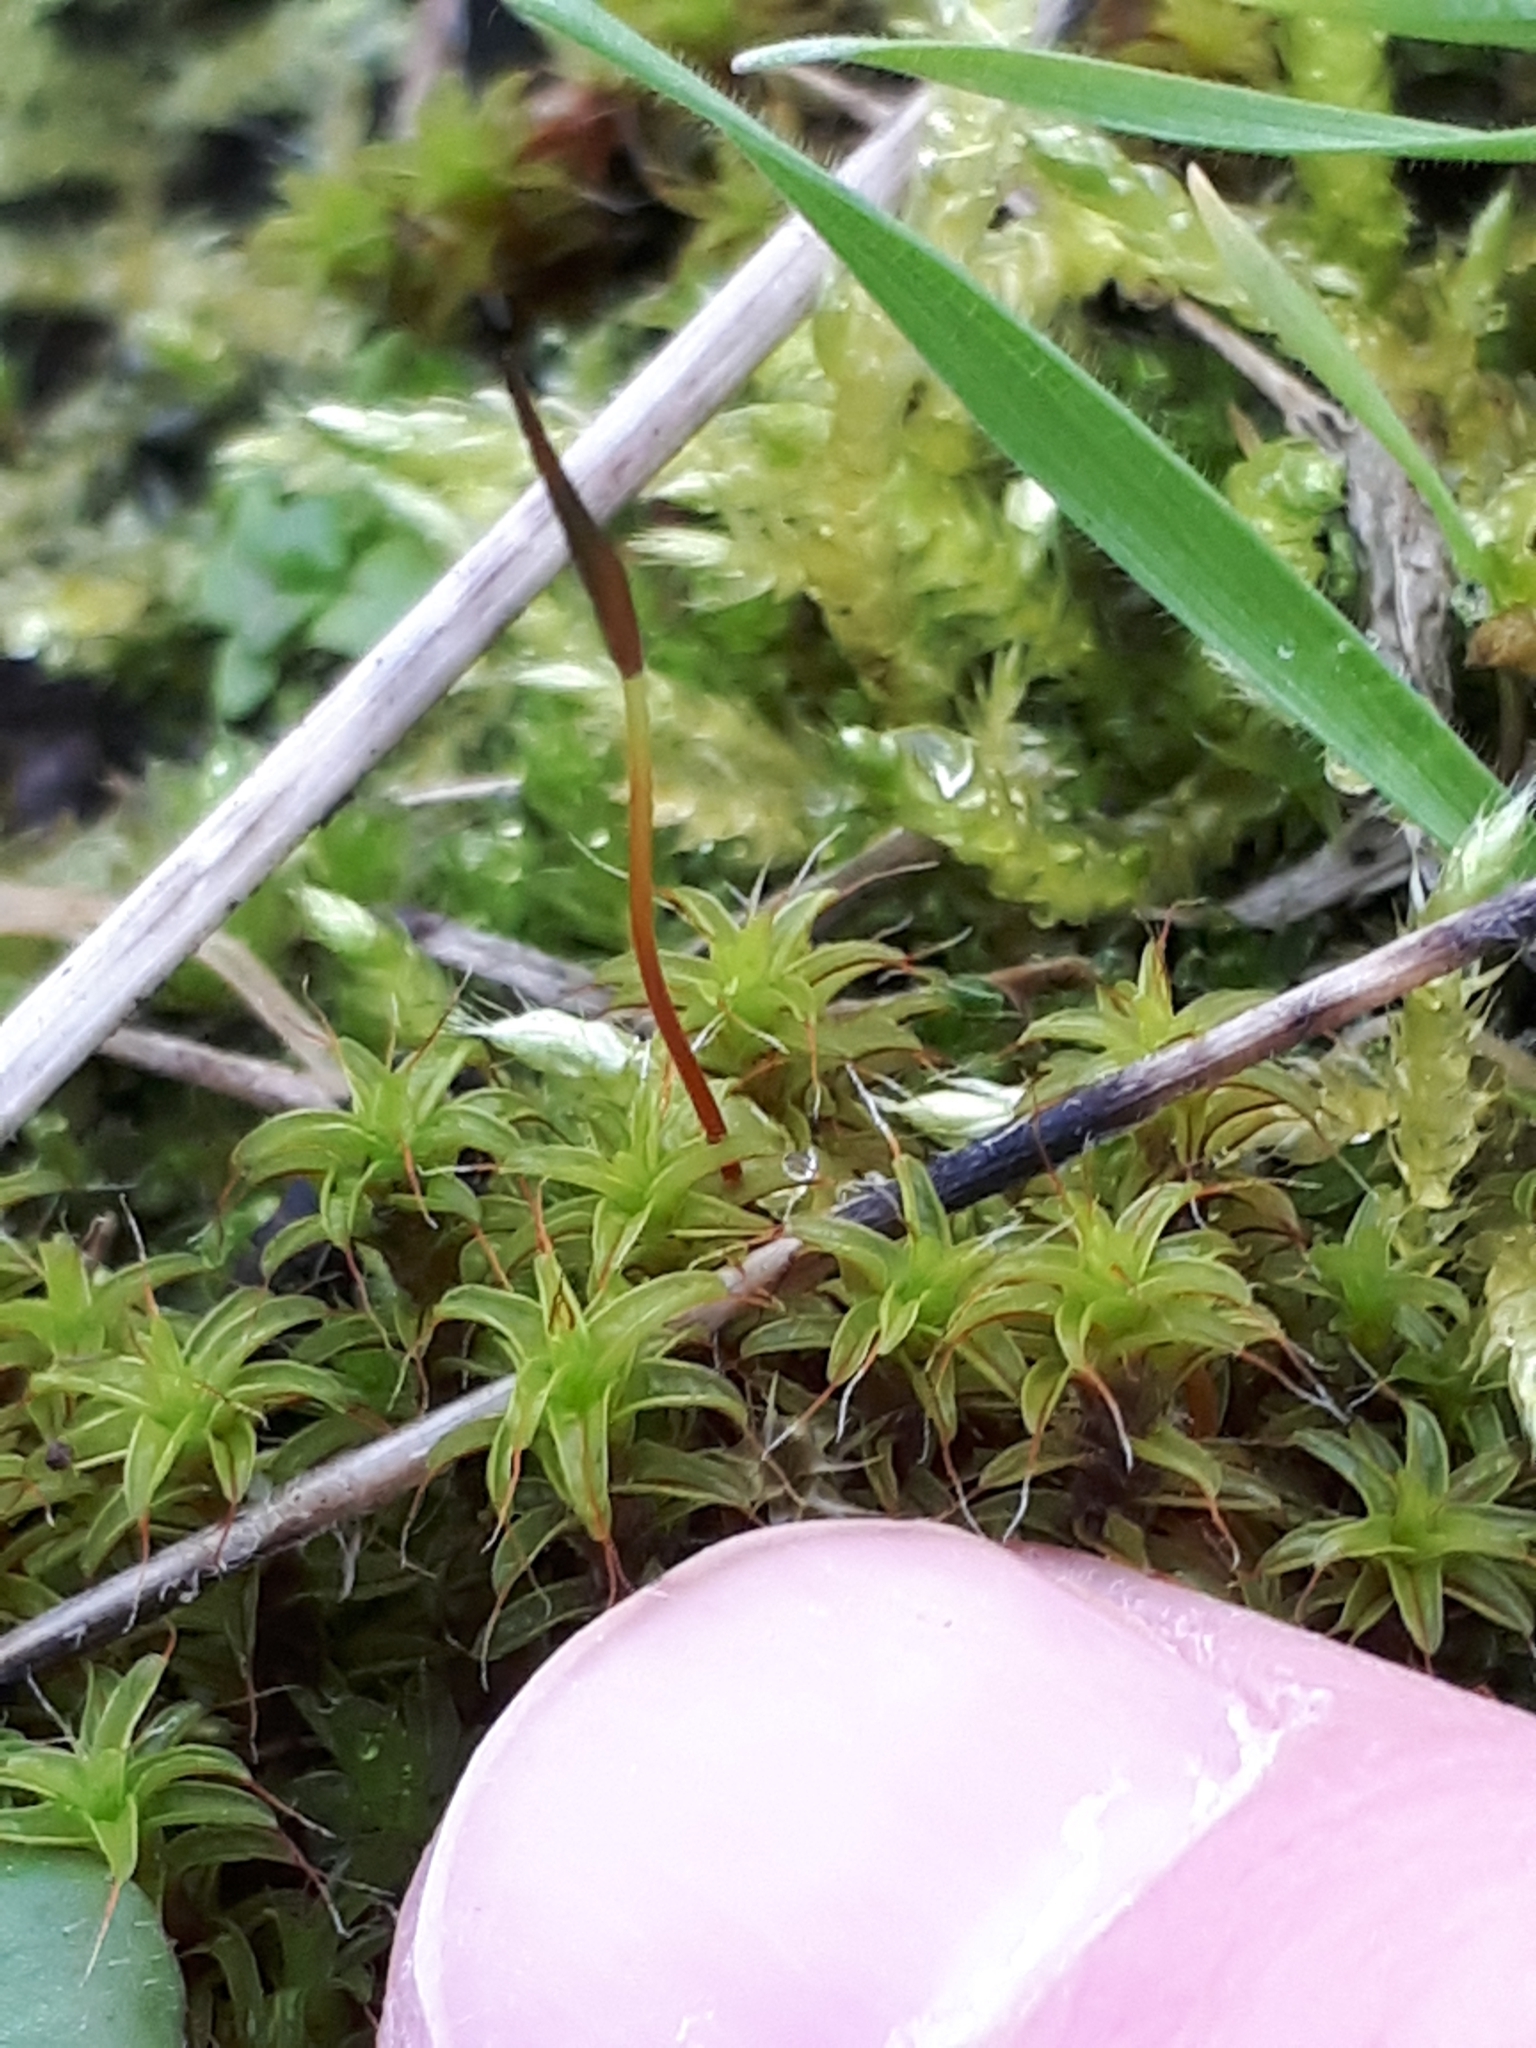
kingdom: Plantae
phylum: Bryophyta
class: Bryopsida
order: Pottiales
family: Pottiaceae
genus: Syntrichia
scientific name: Syntrichia ruralis
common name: Sidewalk screw moss
